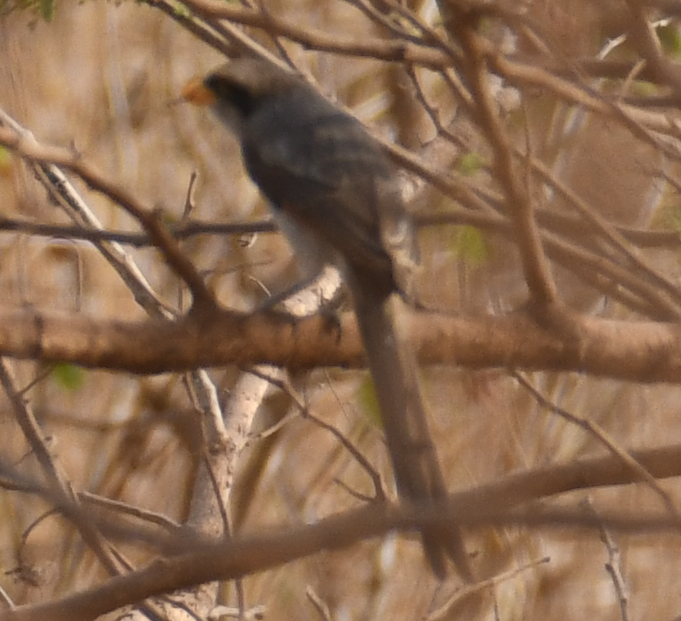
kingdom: Animalia
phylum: Chordata
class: Aves
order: Passeriformes
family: Laniidae
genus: Corvinella
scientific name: Corvinella corvina
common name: Yellow-billed shrike
